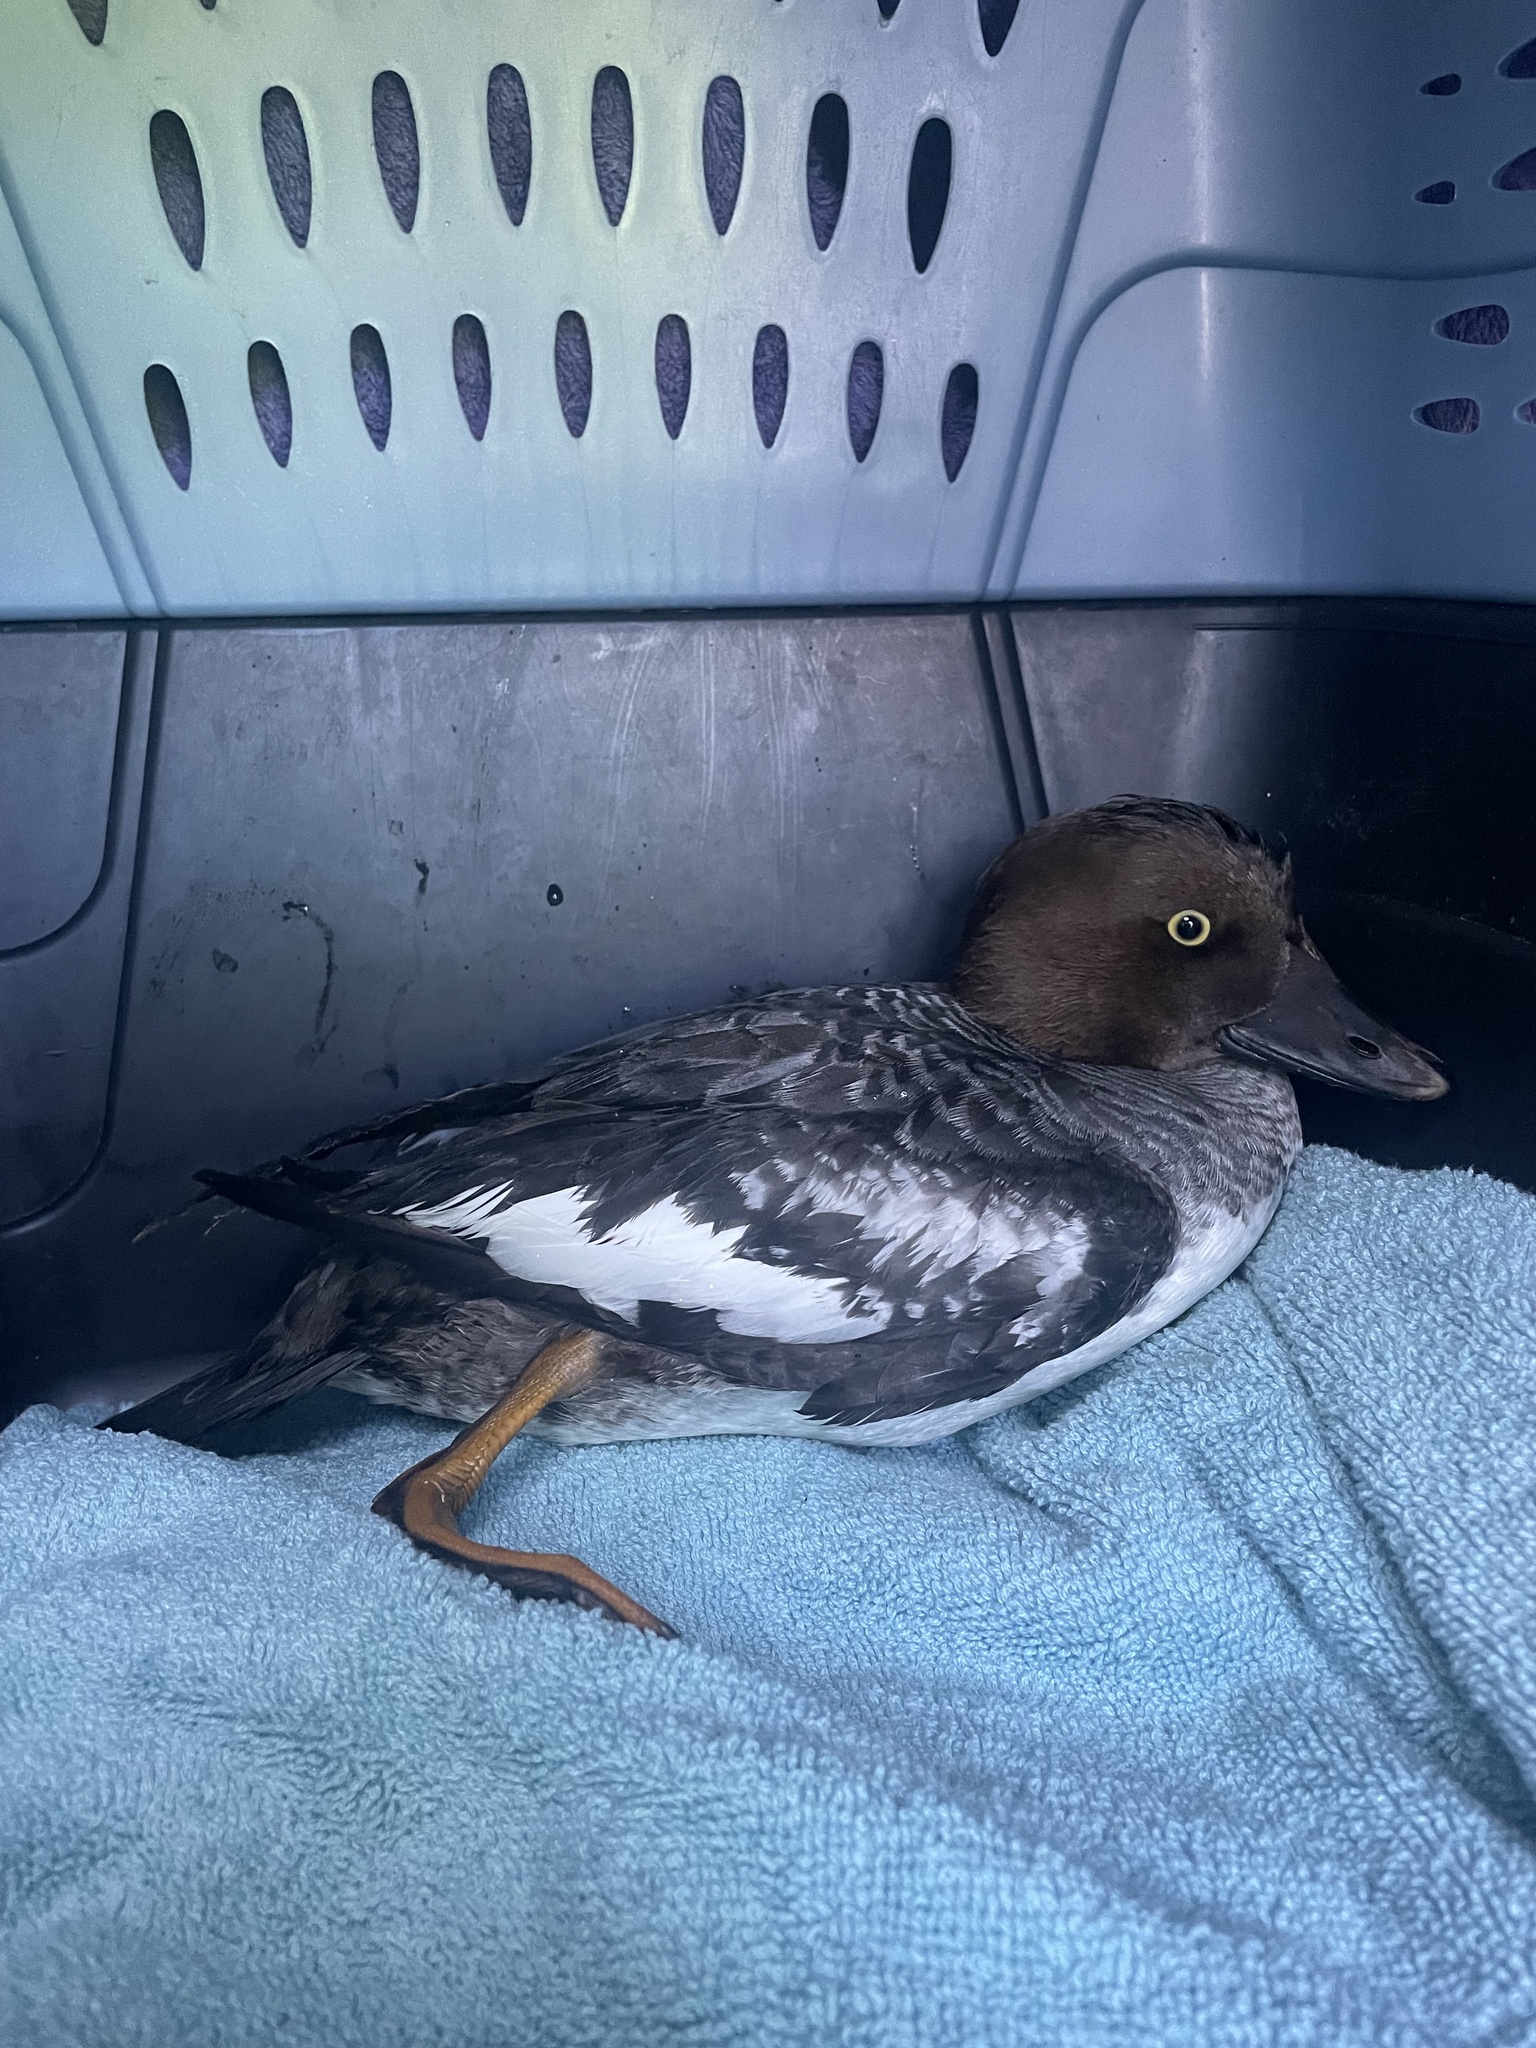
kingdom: Animalia
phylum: Chordata
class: Aves
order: Anseriformes
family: Anatidae
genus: Bucephala
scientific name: Bucephala clangula
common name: Common goldeneye
